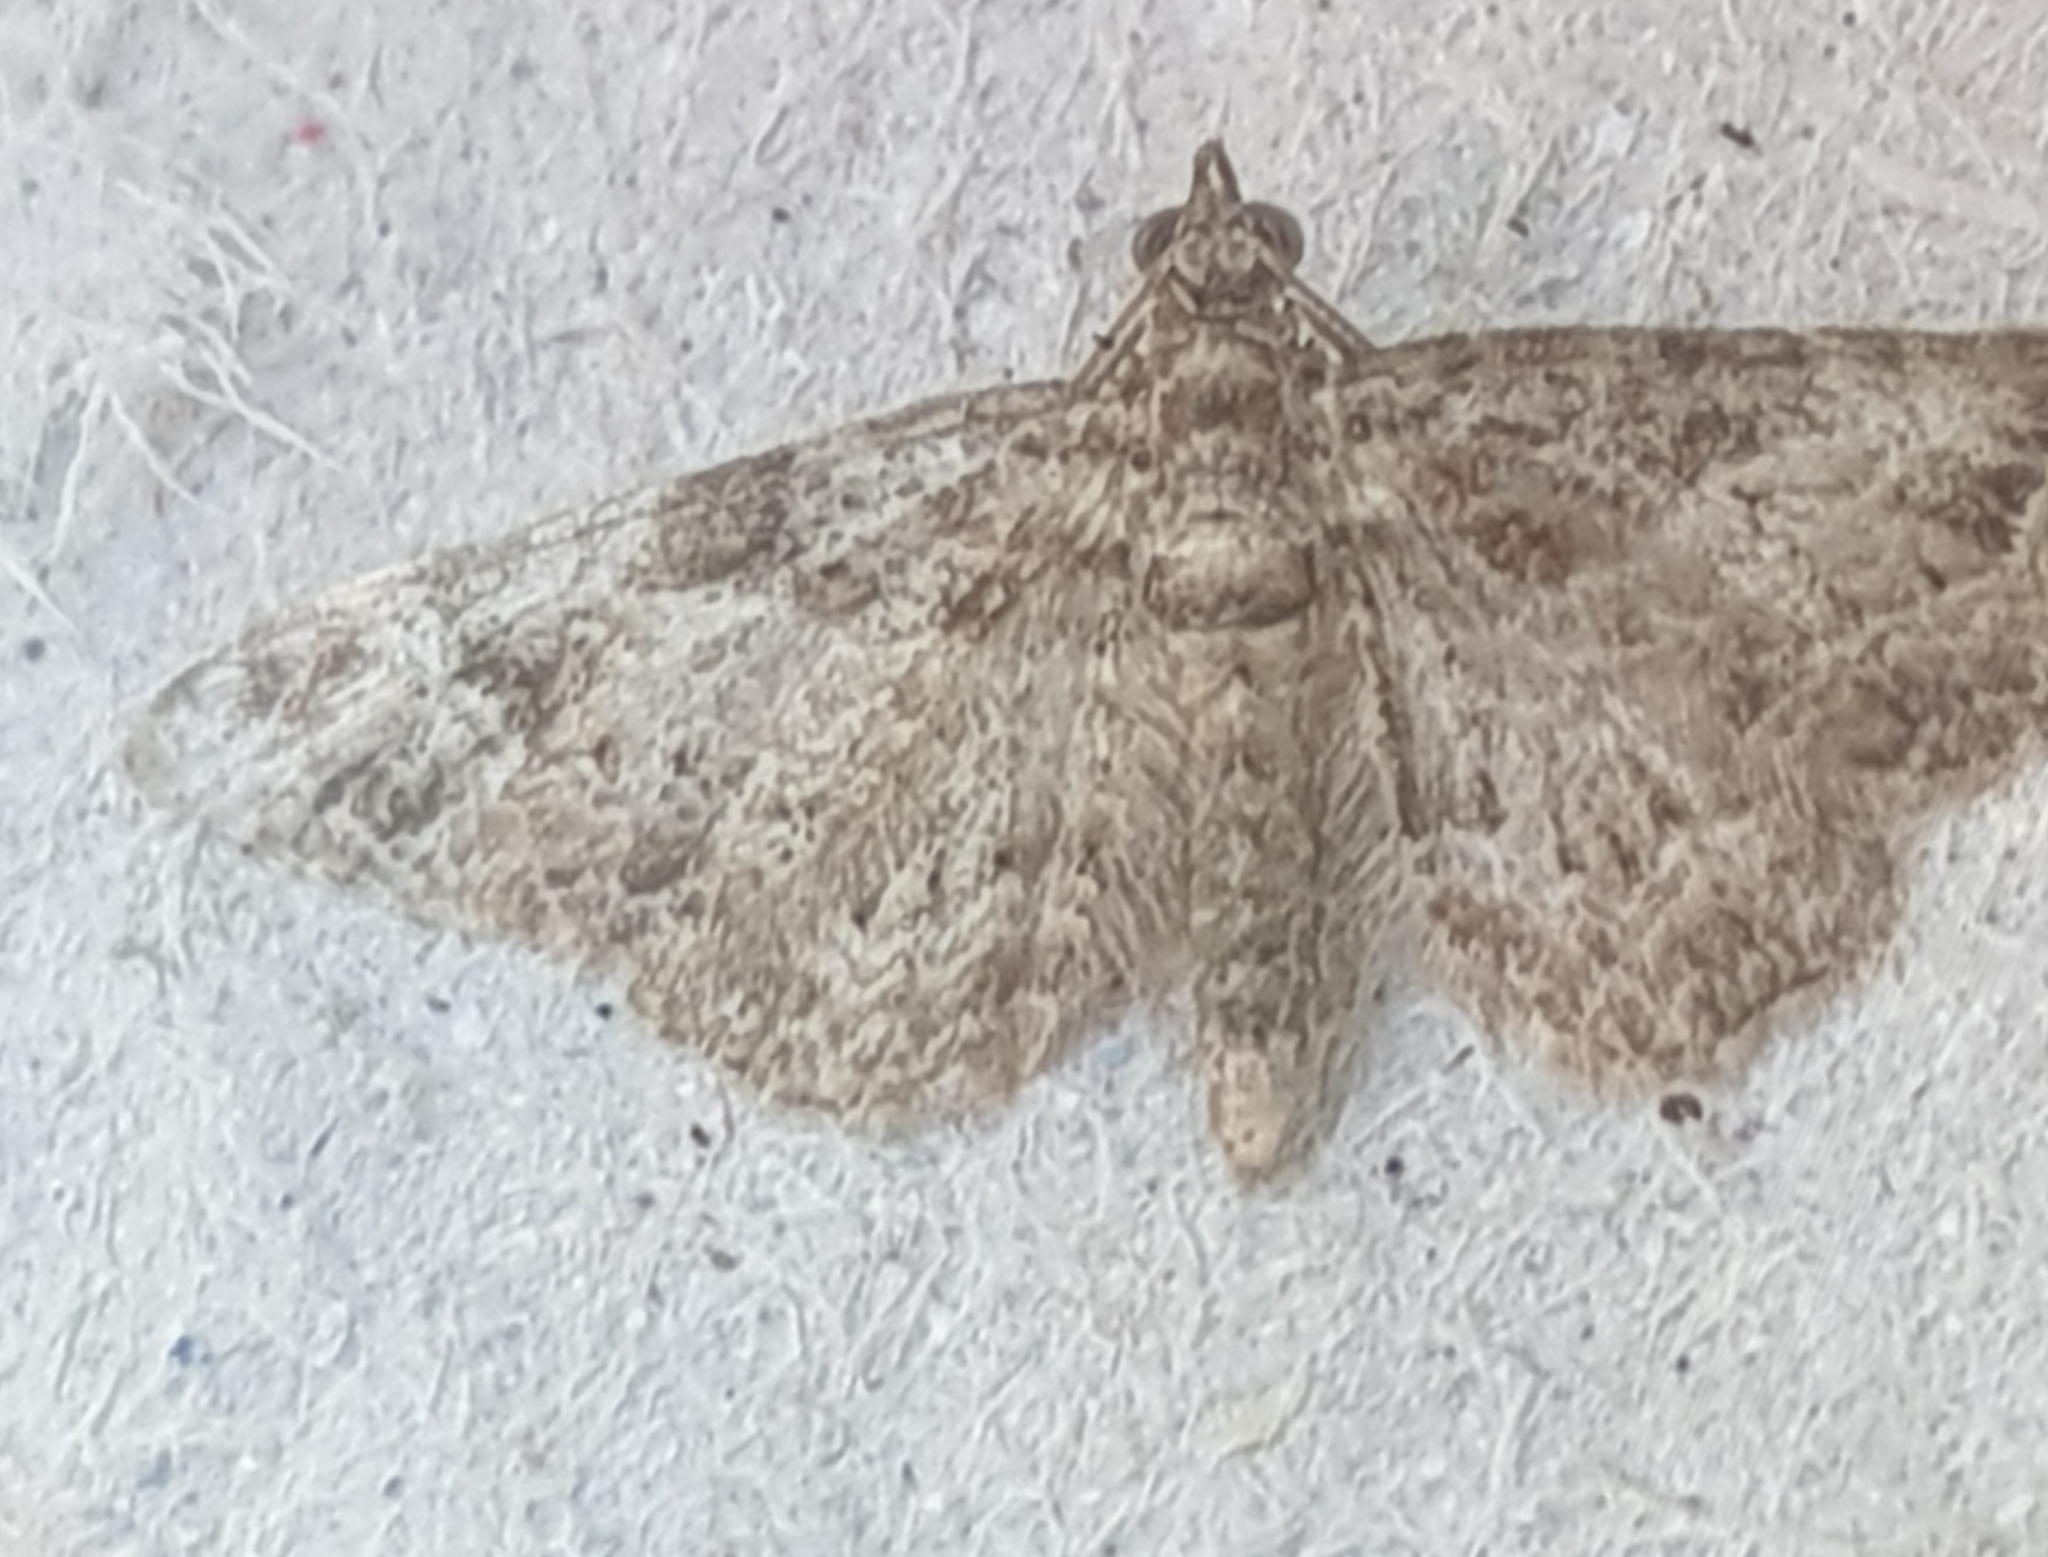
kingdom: Animalia
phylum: Arthropoda
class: Insecta
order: Lepidoptera
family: Geometridae
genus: Gymnoscelis
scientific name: Gymnoscelis rufifasciata
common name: Double-striped pug
